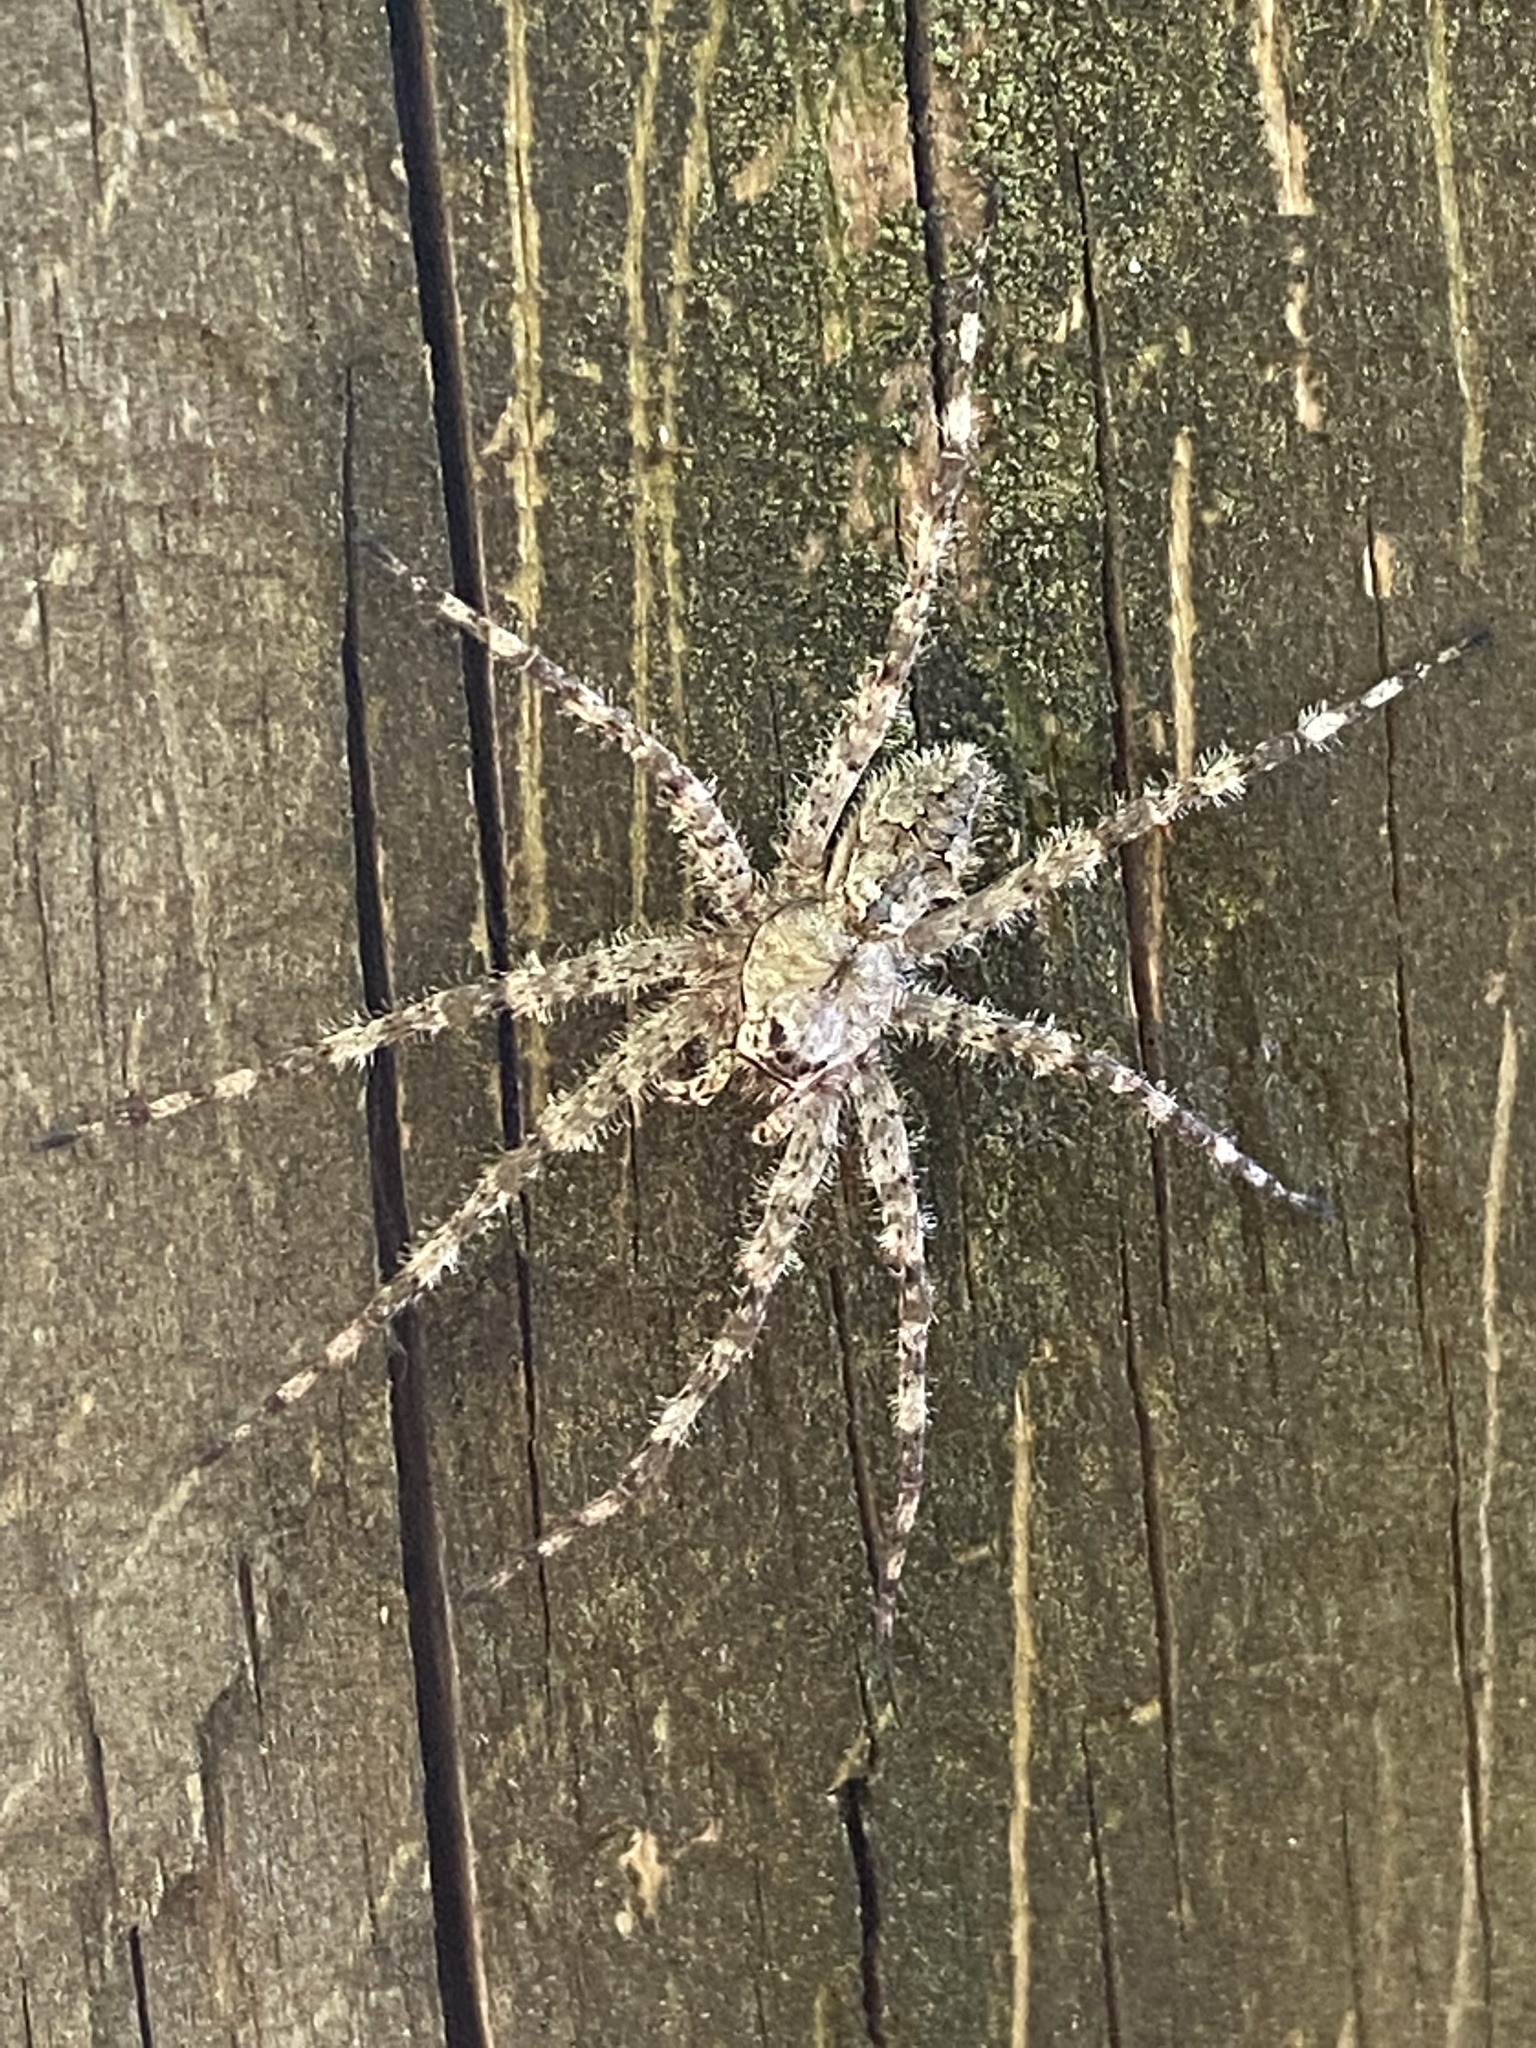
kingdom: Animalia
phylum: Arthropoda
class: Arachnida
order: Araneae
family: Pisauridae
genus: Dolomedes
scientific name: Dolomedes albineus
